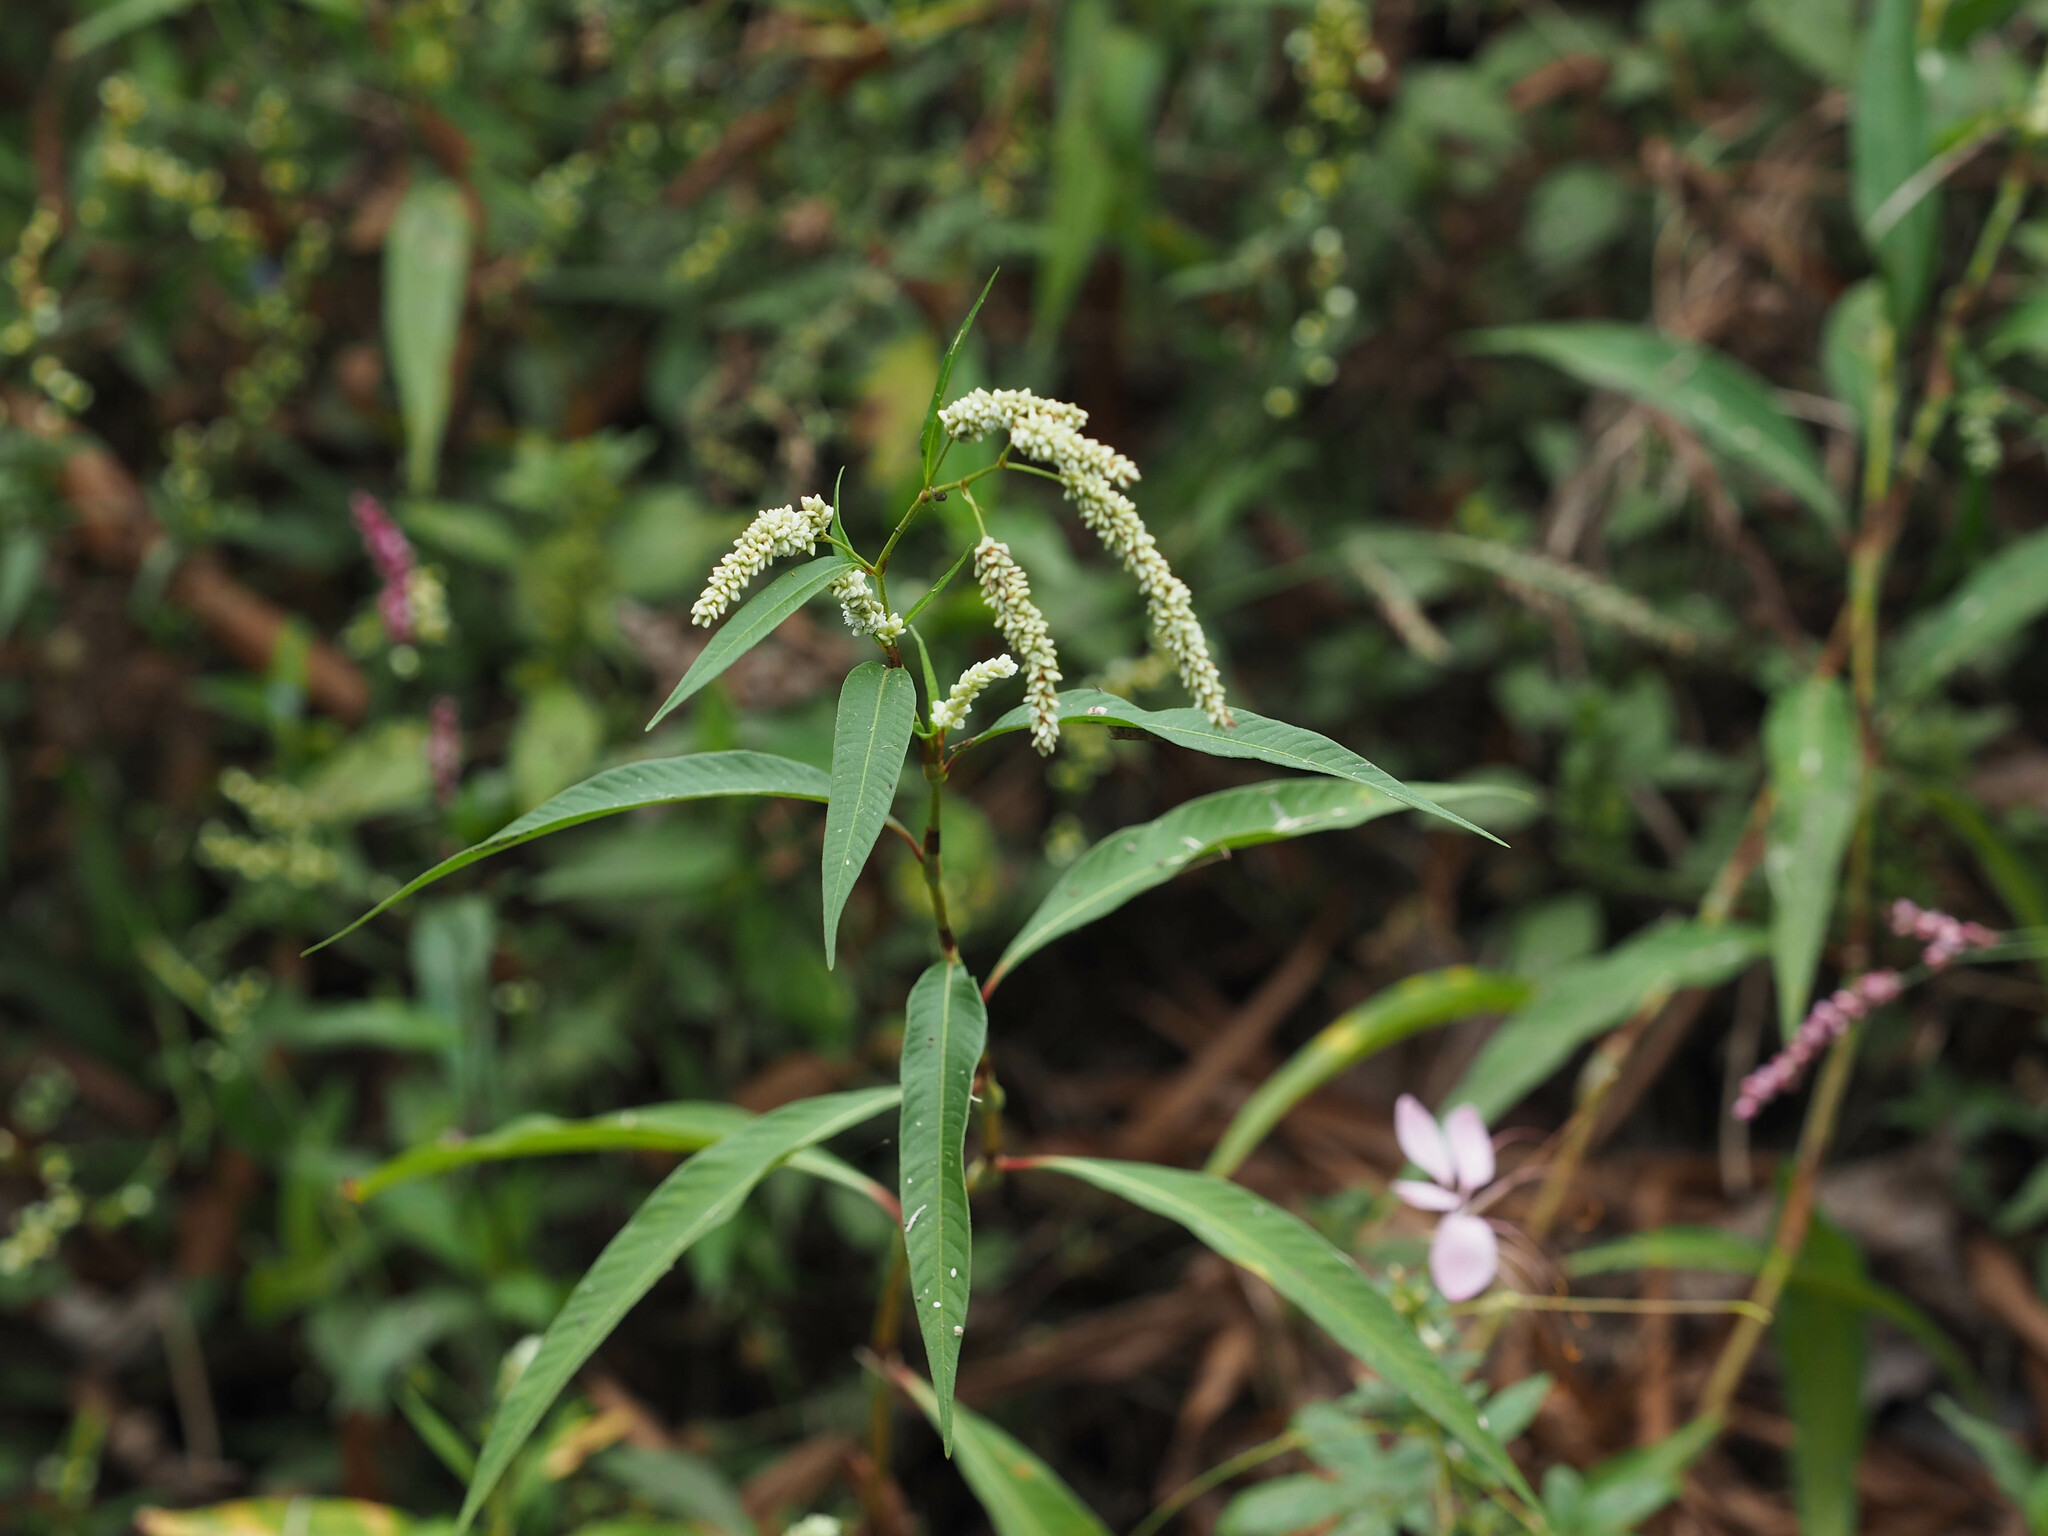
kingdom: Plantae
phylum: Tracheophyta
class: Magnoliopsida
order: Caryophyllales
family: Polygonaceae
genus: Persicaria
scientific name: Persicaria lapathifolia
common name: Curlytop knotweed
